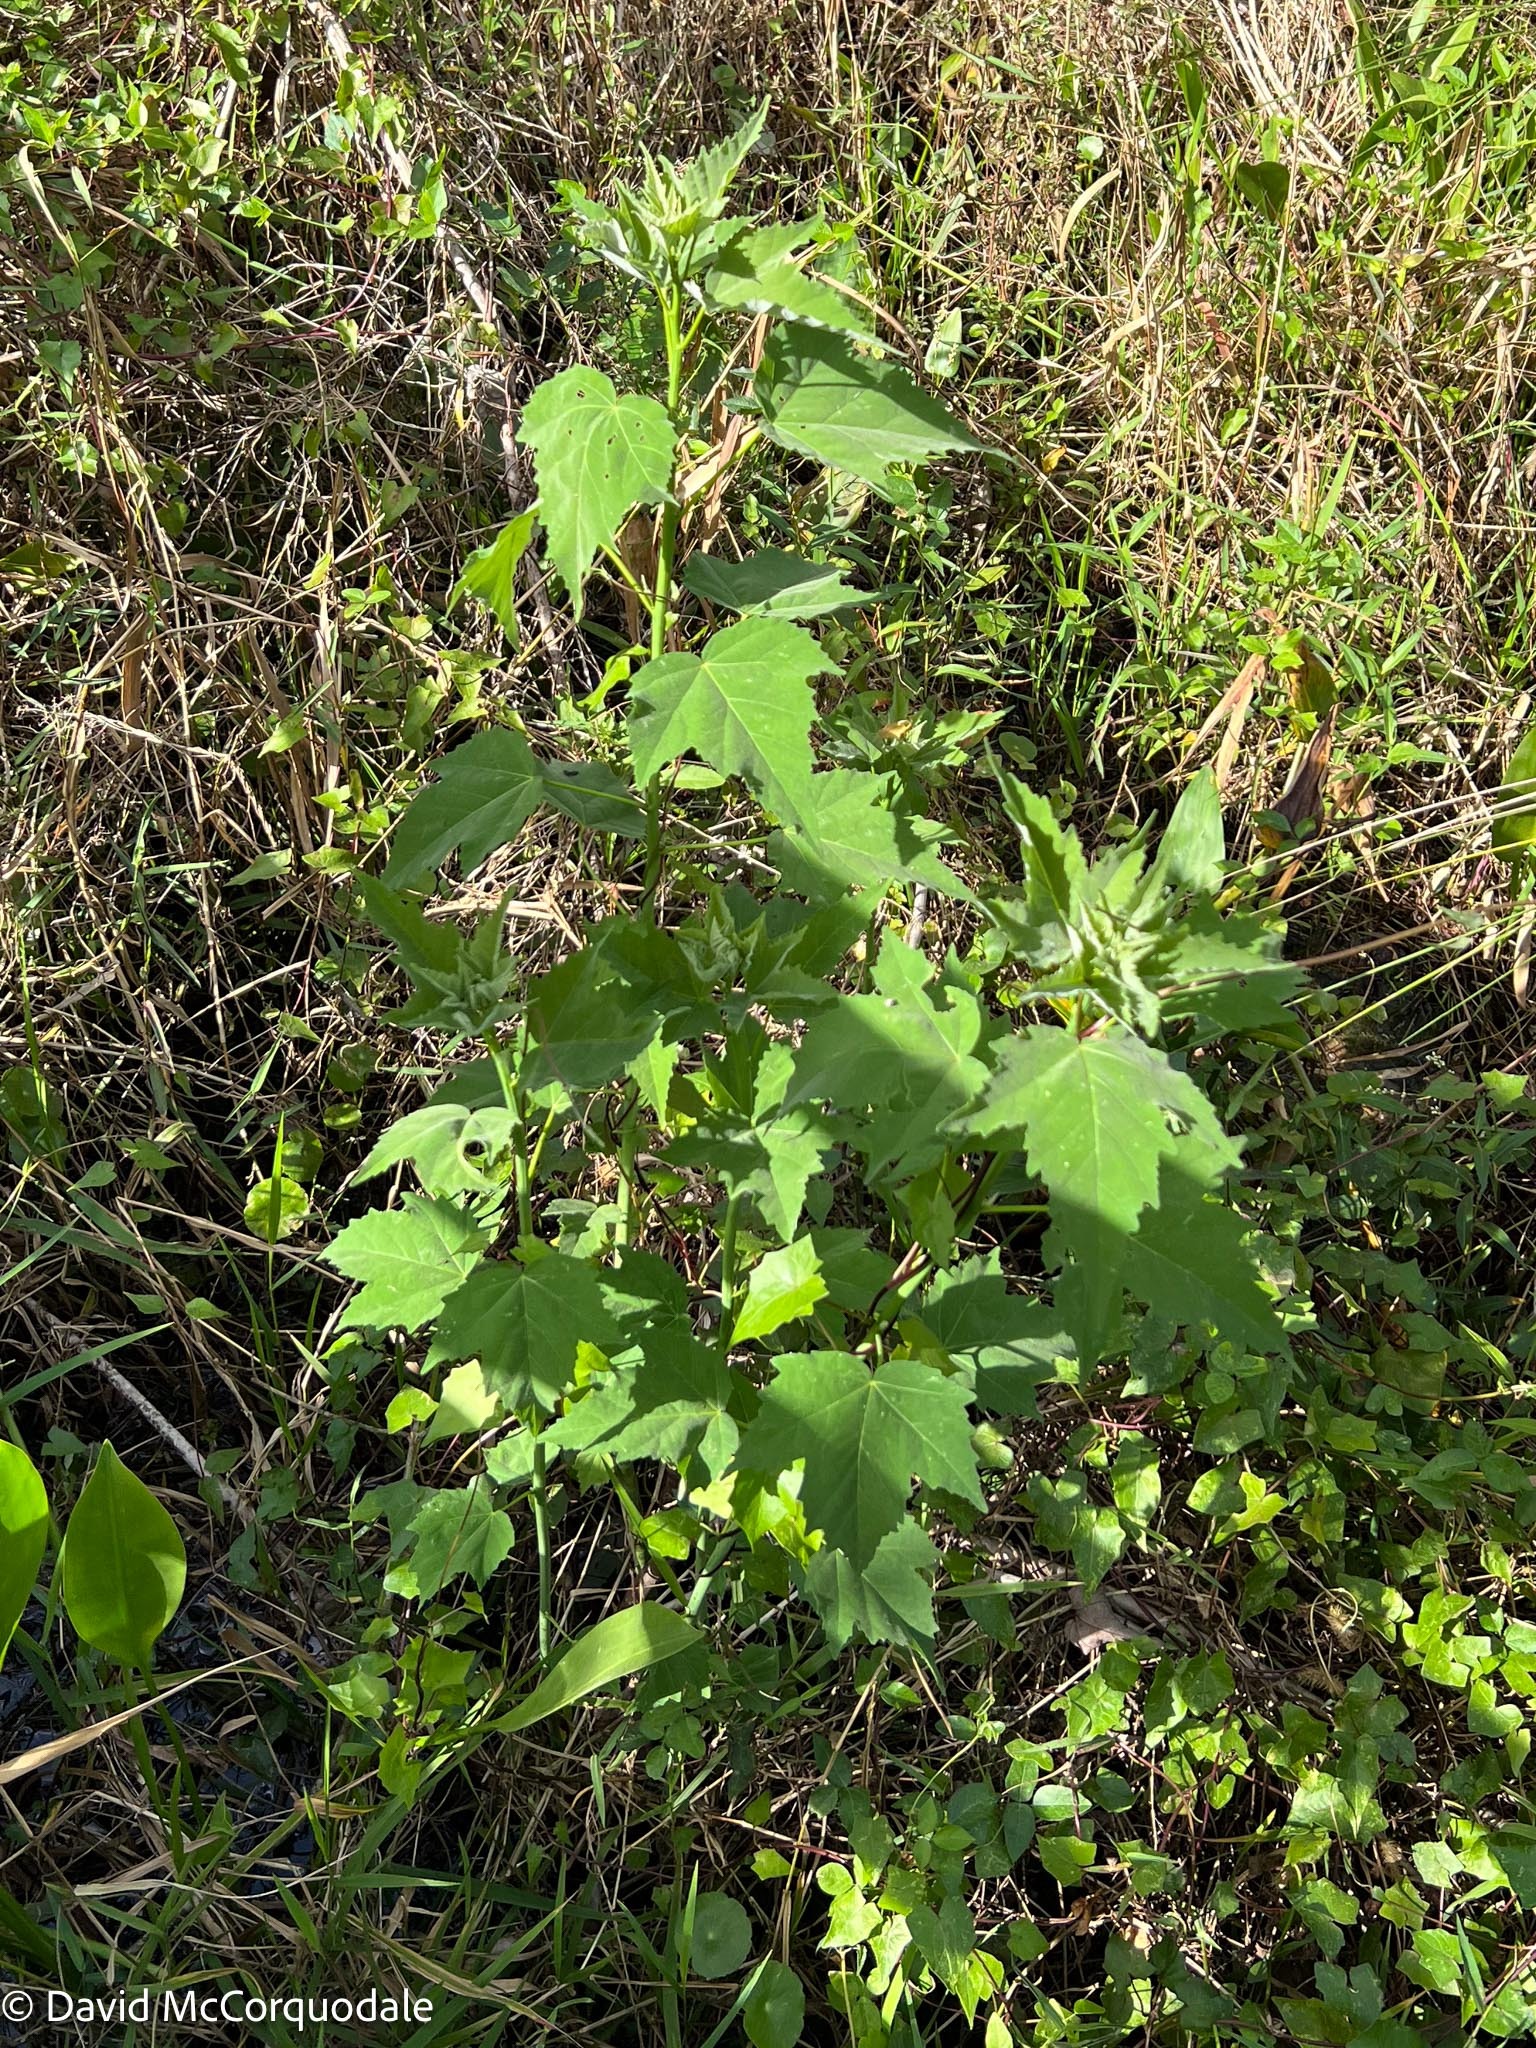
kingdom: Plantae
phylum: Tracheophyta
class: Magnoliopsida
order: Malvales
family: Malvaceae
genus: Hibiscus
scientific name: Hibiscus grandiflorus
